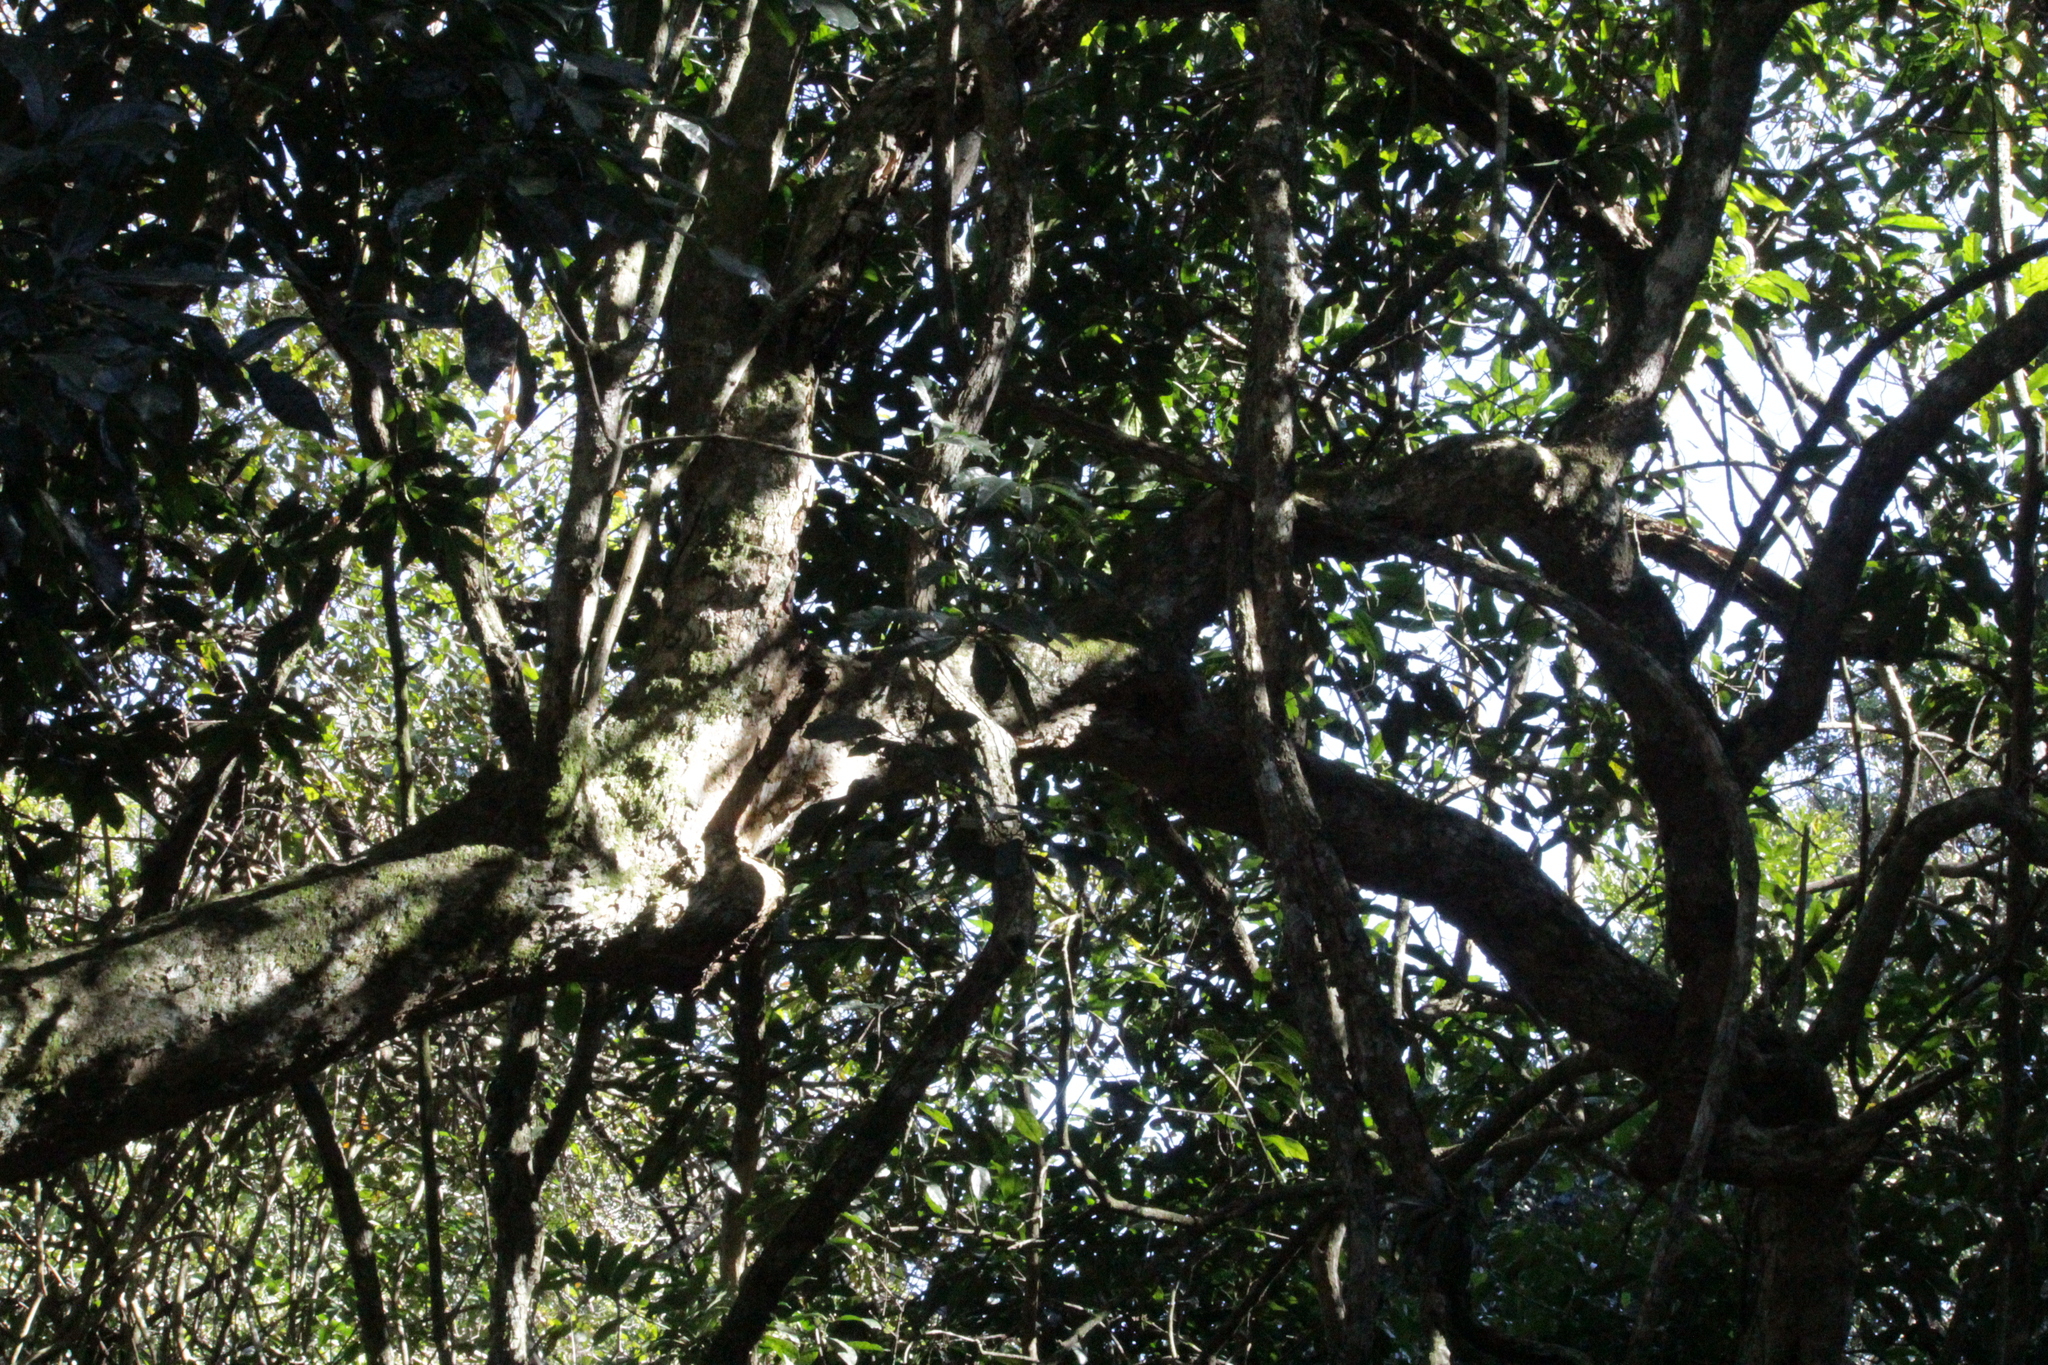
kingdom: Plantae
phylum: Tracheophyta
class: Magnoliopsida
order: Laurales
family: Monimiaceae
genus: Xymalos
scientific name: Xymalos monospora
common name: Lemonwood
